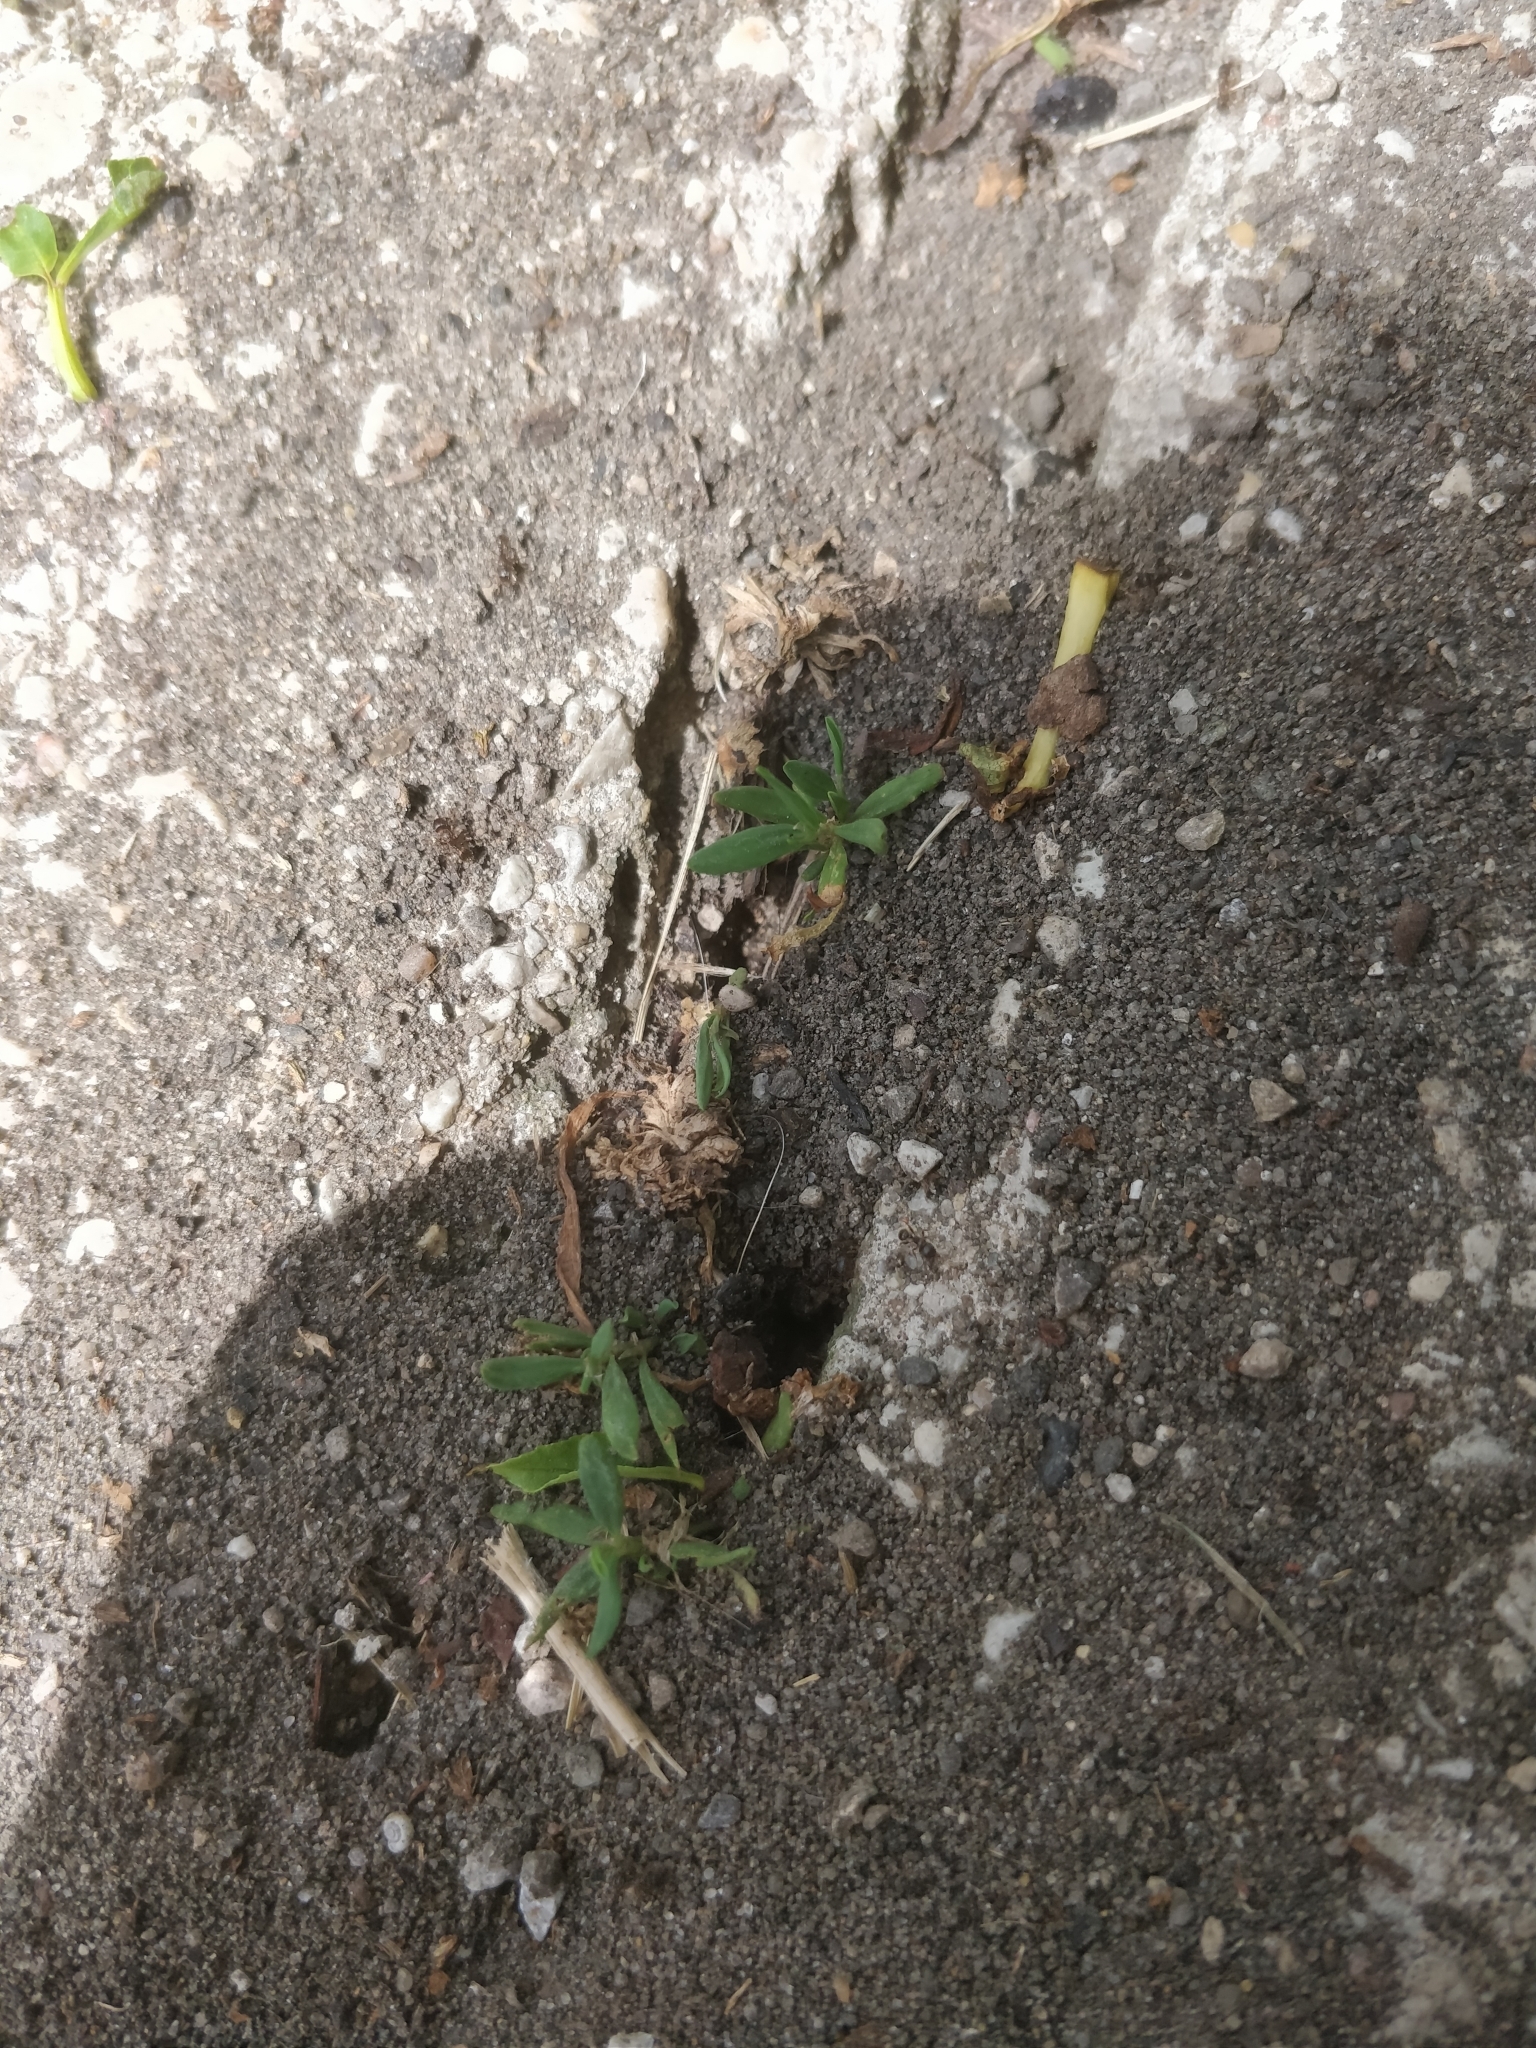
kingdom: Animalia
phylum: Arthropoda
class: Insecta
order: Hymenoptera
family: Formicidae
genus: Tetramorium
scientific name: Tetramorium immigrans
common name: Pavement ant
